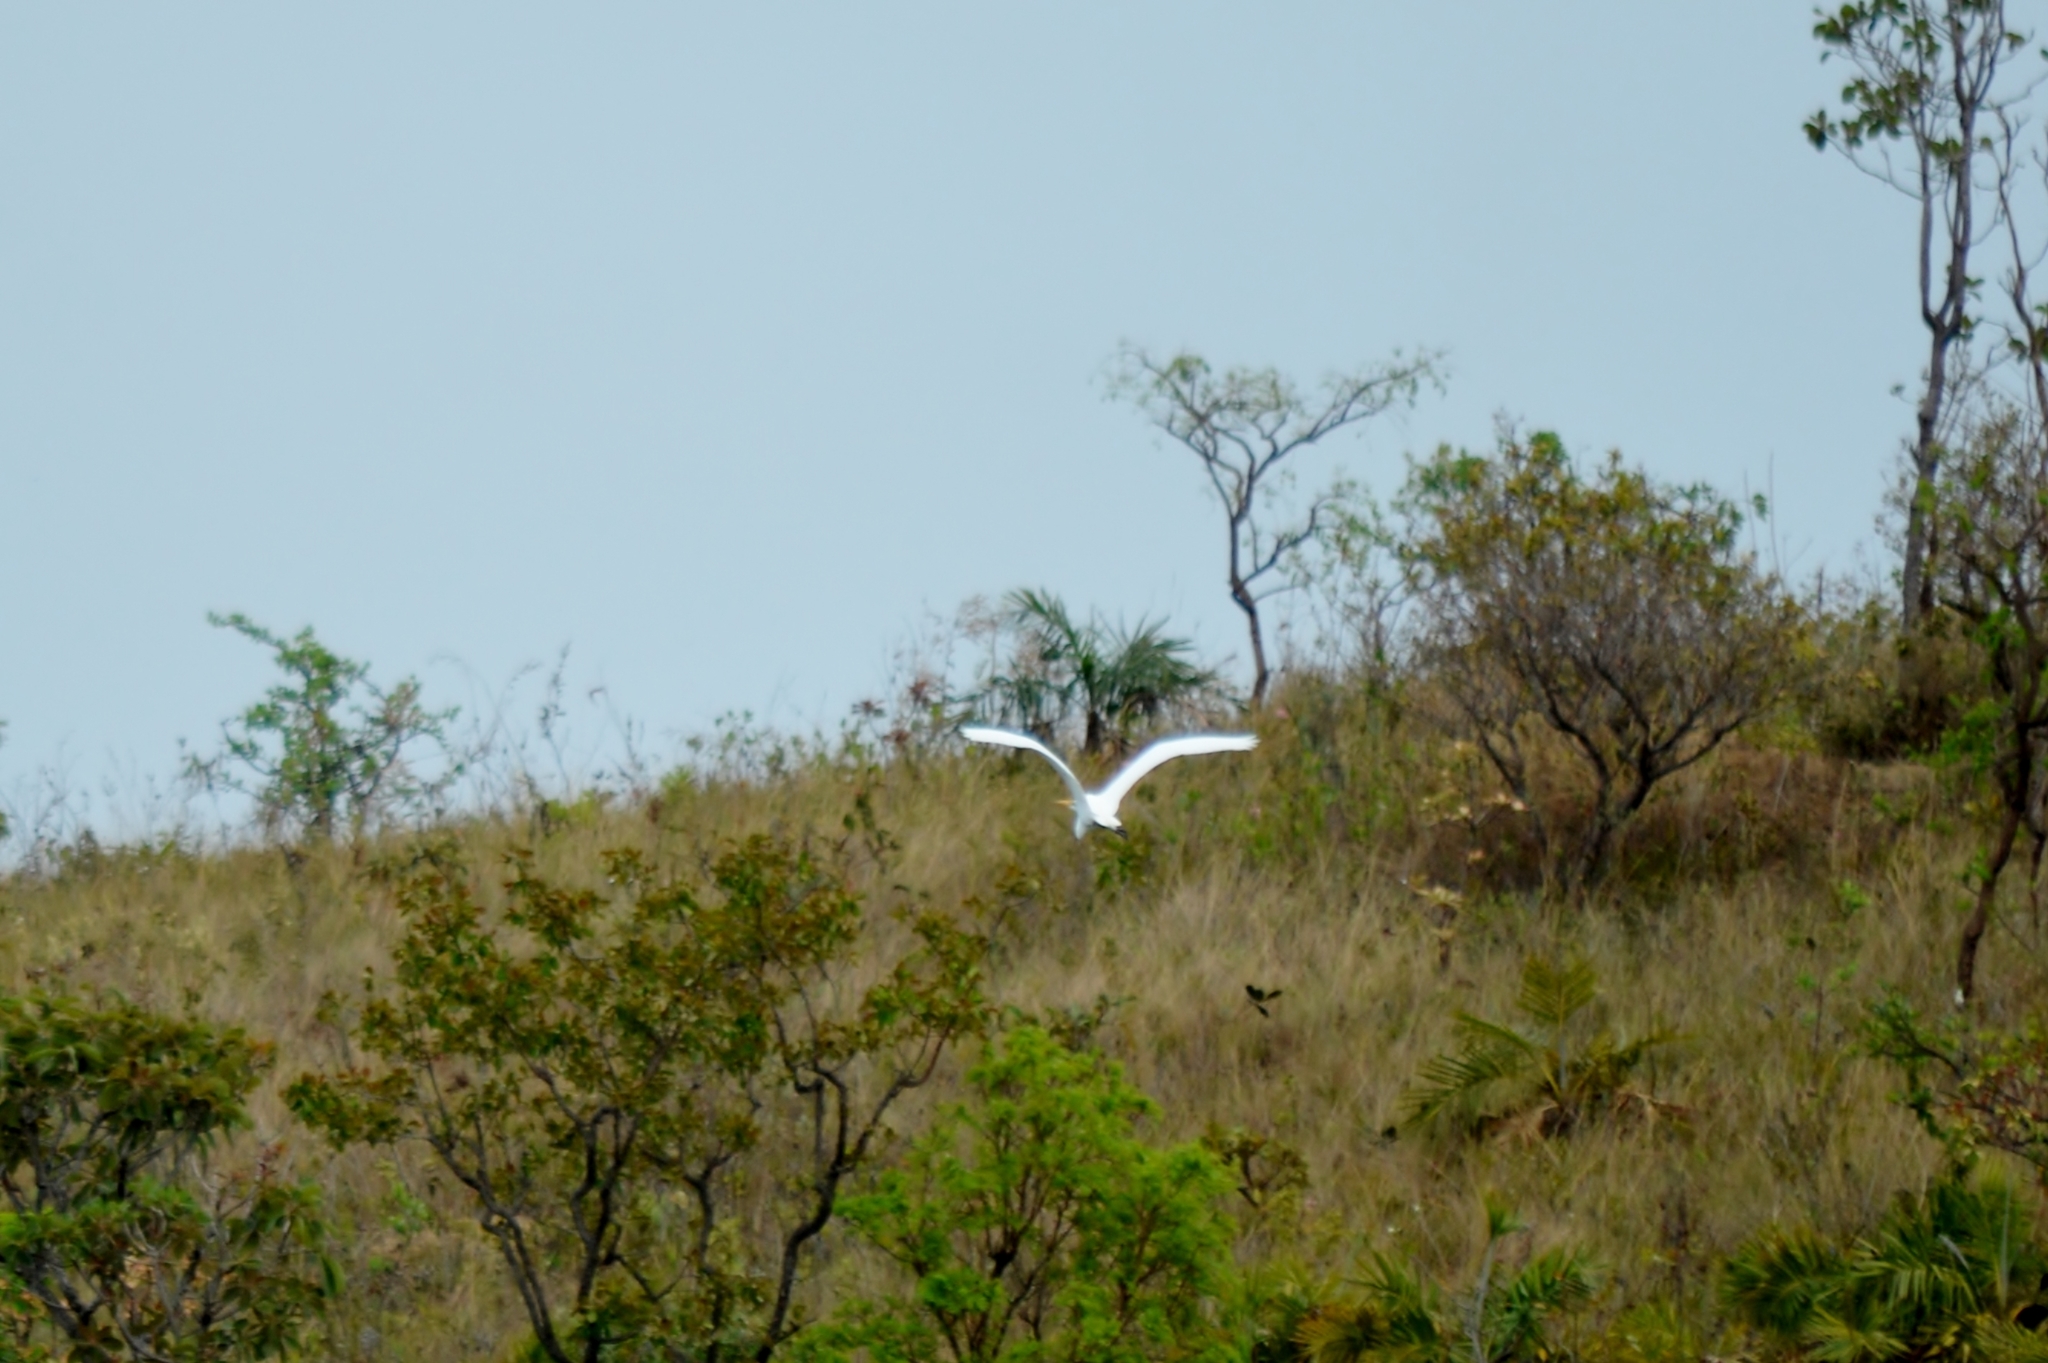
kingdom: Animalia
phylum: Chordata
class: Aves
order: Pelecaniformes
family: Ardeidae
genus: Ardea
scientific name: Ardea alba
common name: Great egret
